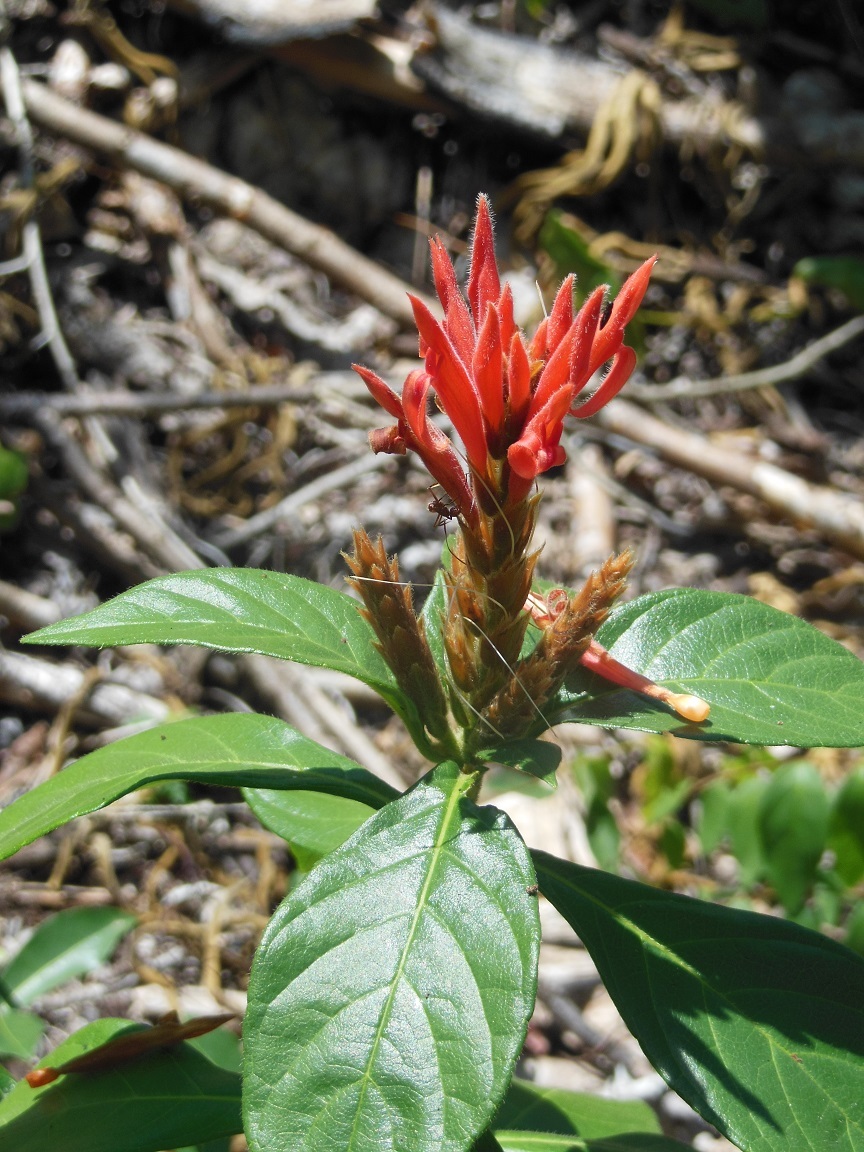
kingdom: Plantae
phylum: Tracheophyta
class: Magnoliopsida
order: Lamiales
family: Acanthaceae
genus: Aphelandra
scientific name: Aphelandra scabra
